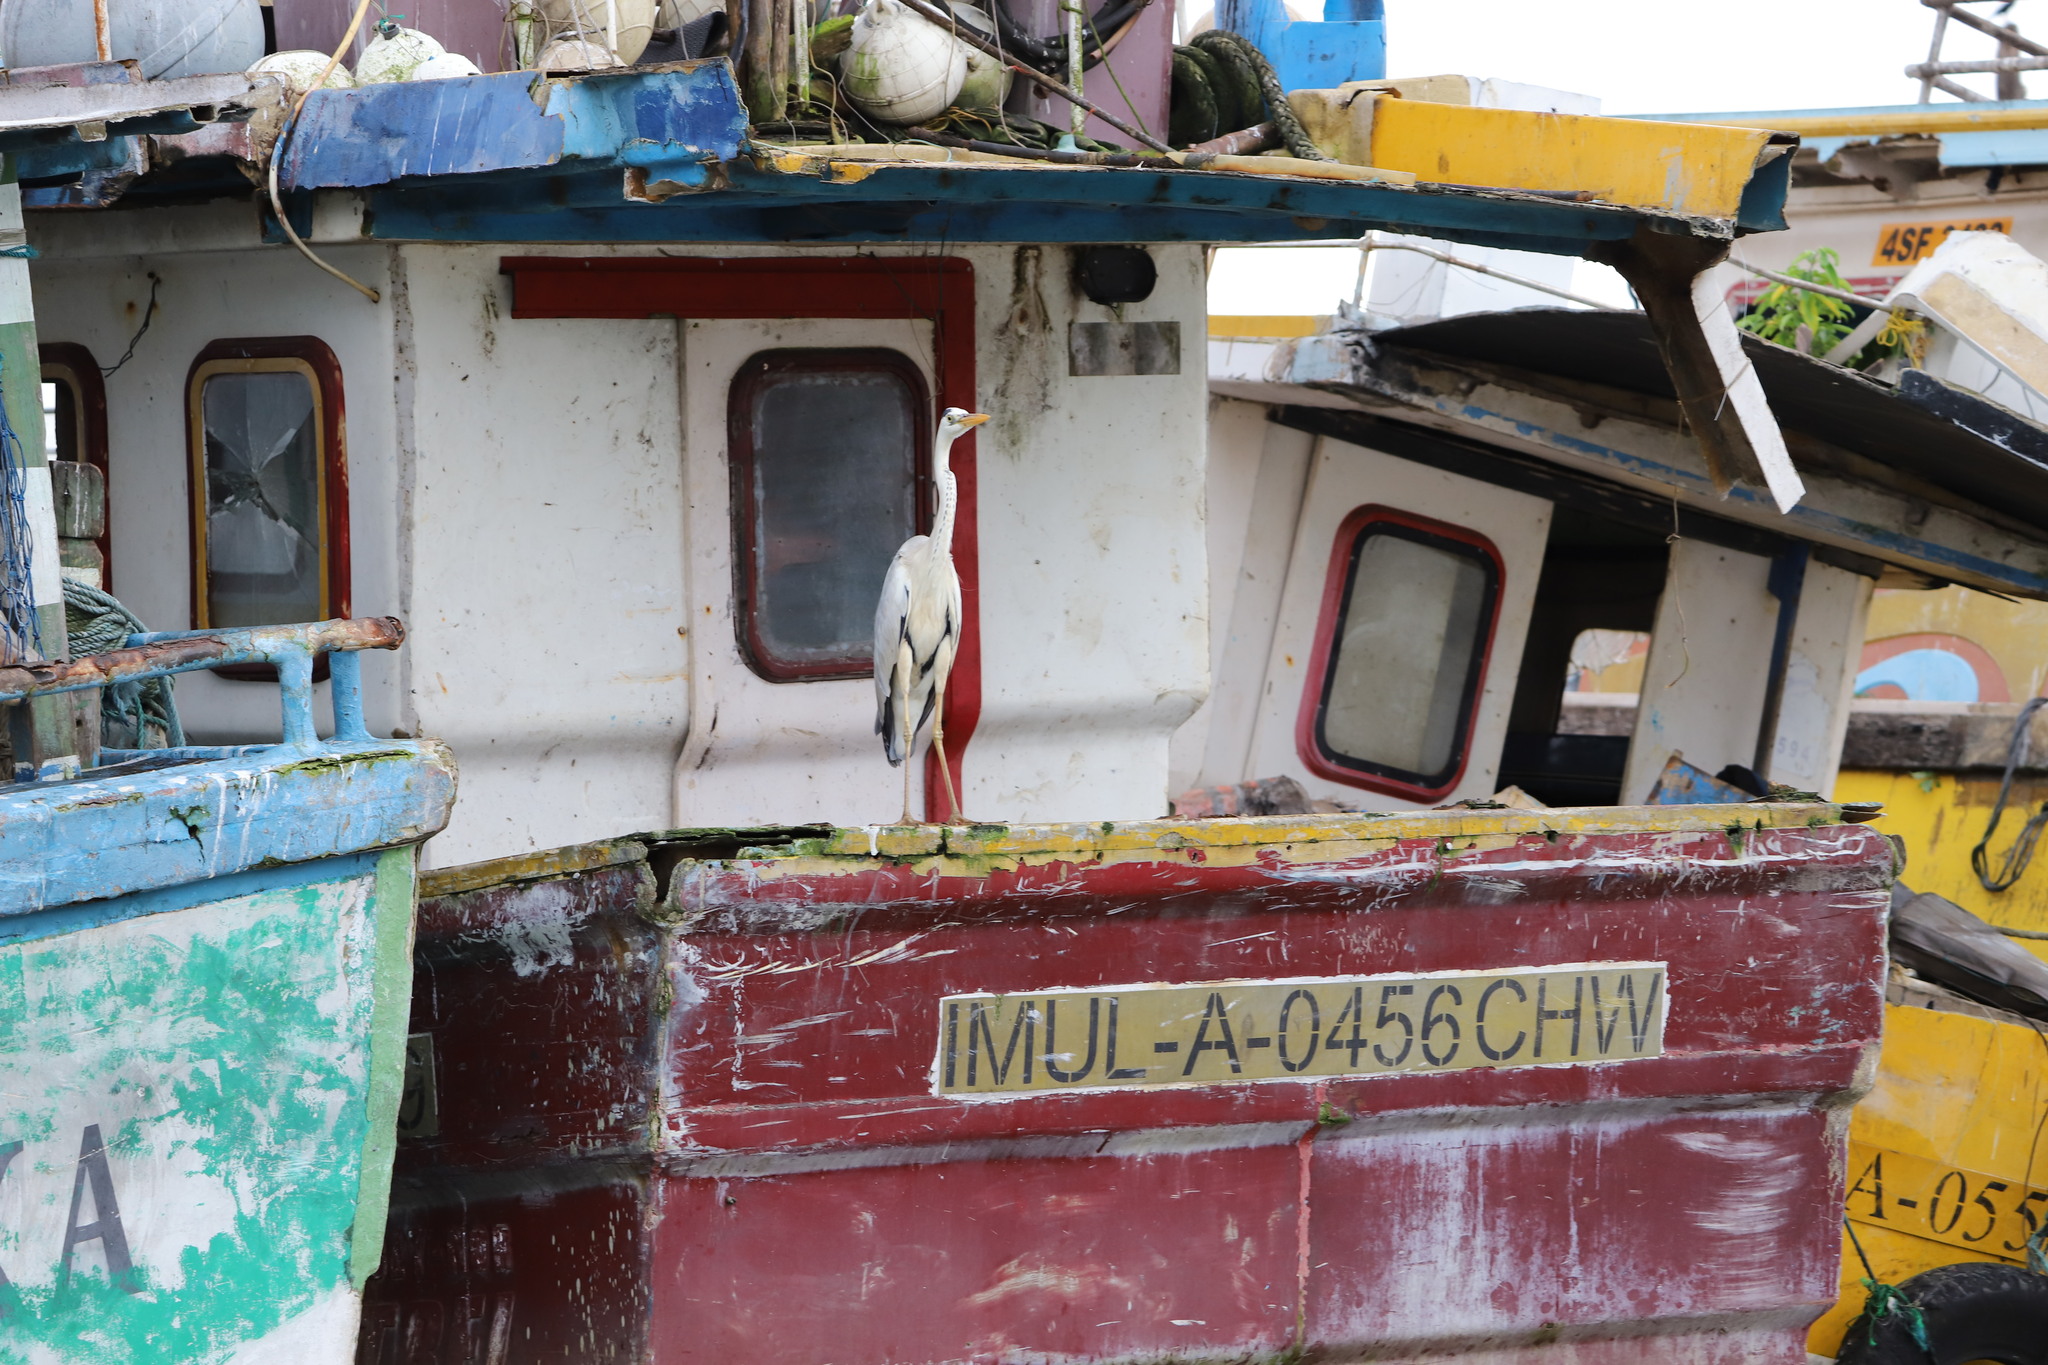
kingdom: Animalia
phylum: Chordata
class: Aves
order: Pelecaniformes
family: Ardeidae
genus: Ardea
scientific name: Ardea cinerea
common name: Grey heron
